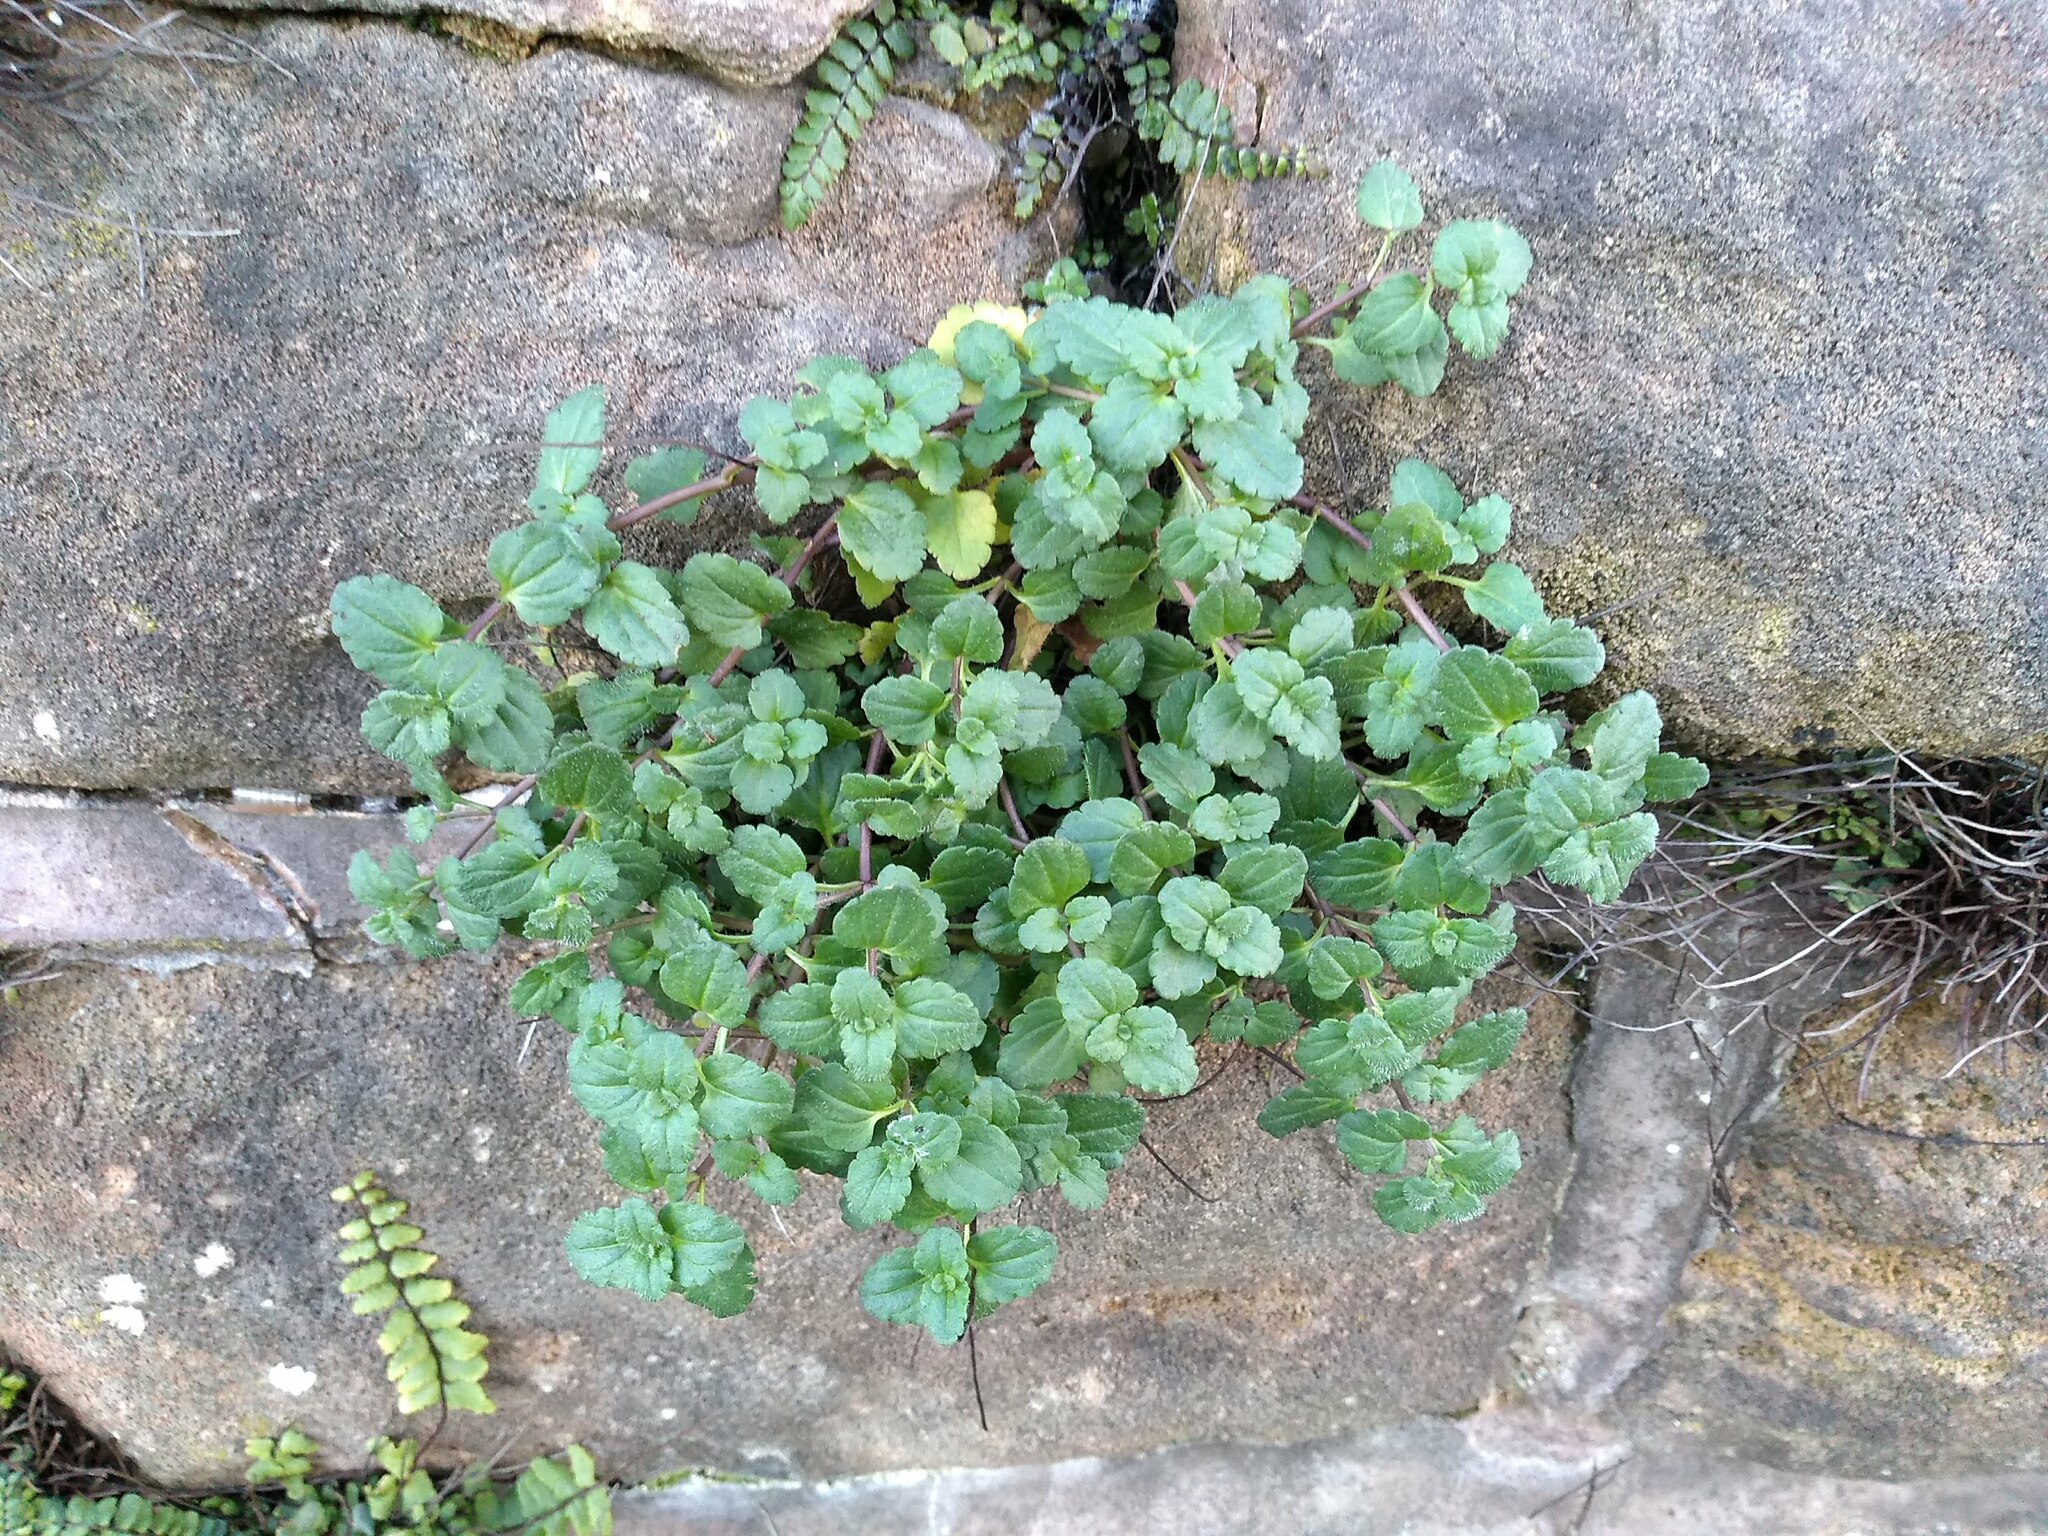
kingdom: Plantae
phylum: Tracheophyta
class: Magnoliopsida
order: Lamiales
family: Plantaginaceae
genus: Veronica
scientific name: Veronica persica
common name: Common field-speedwell
